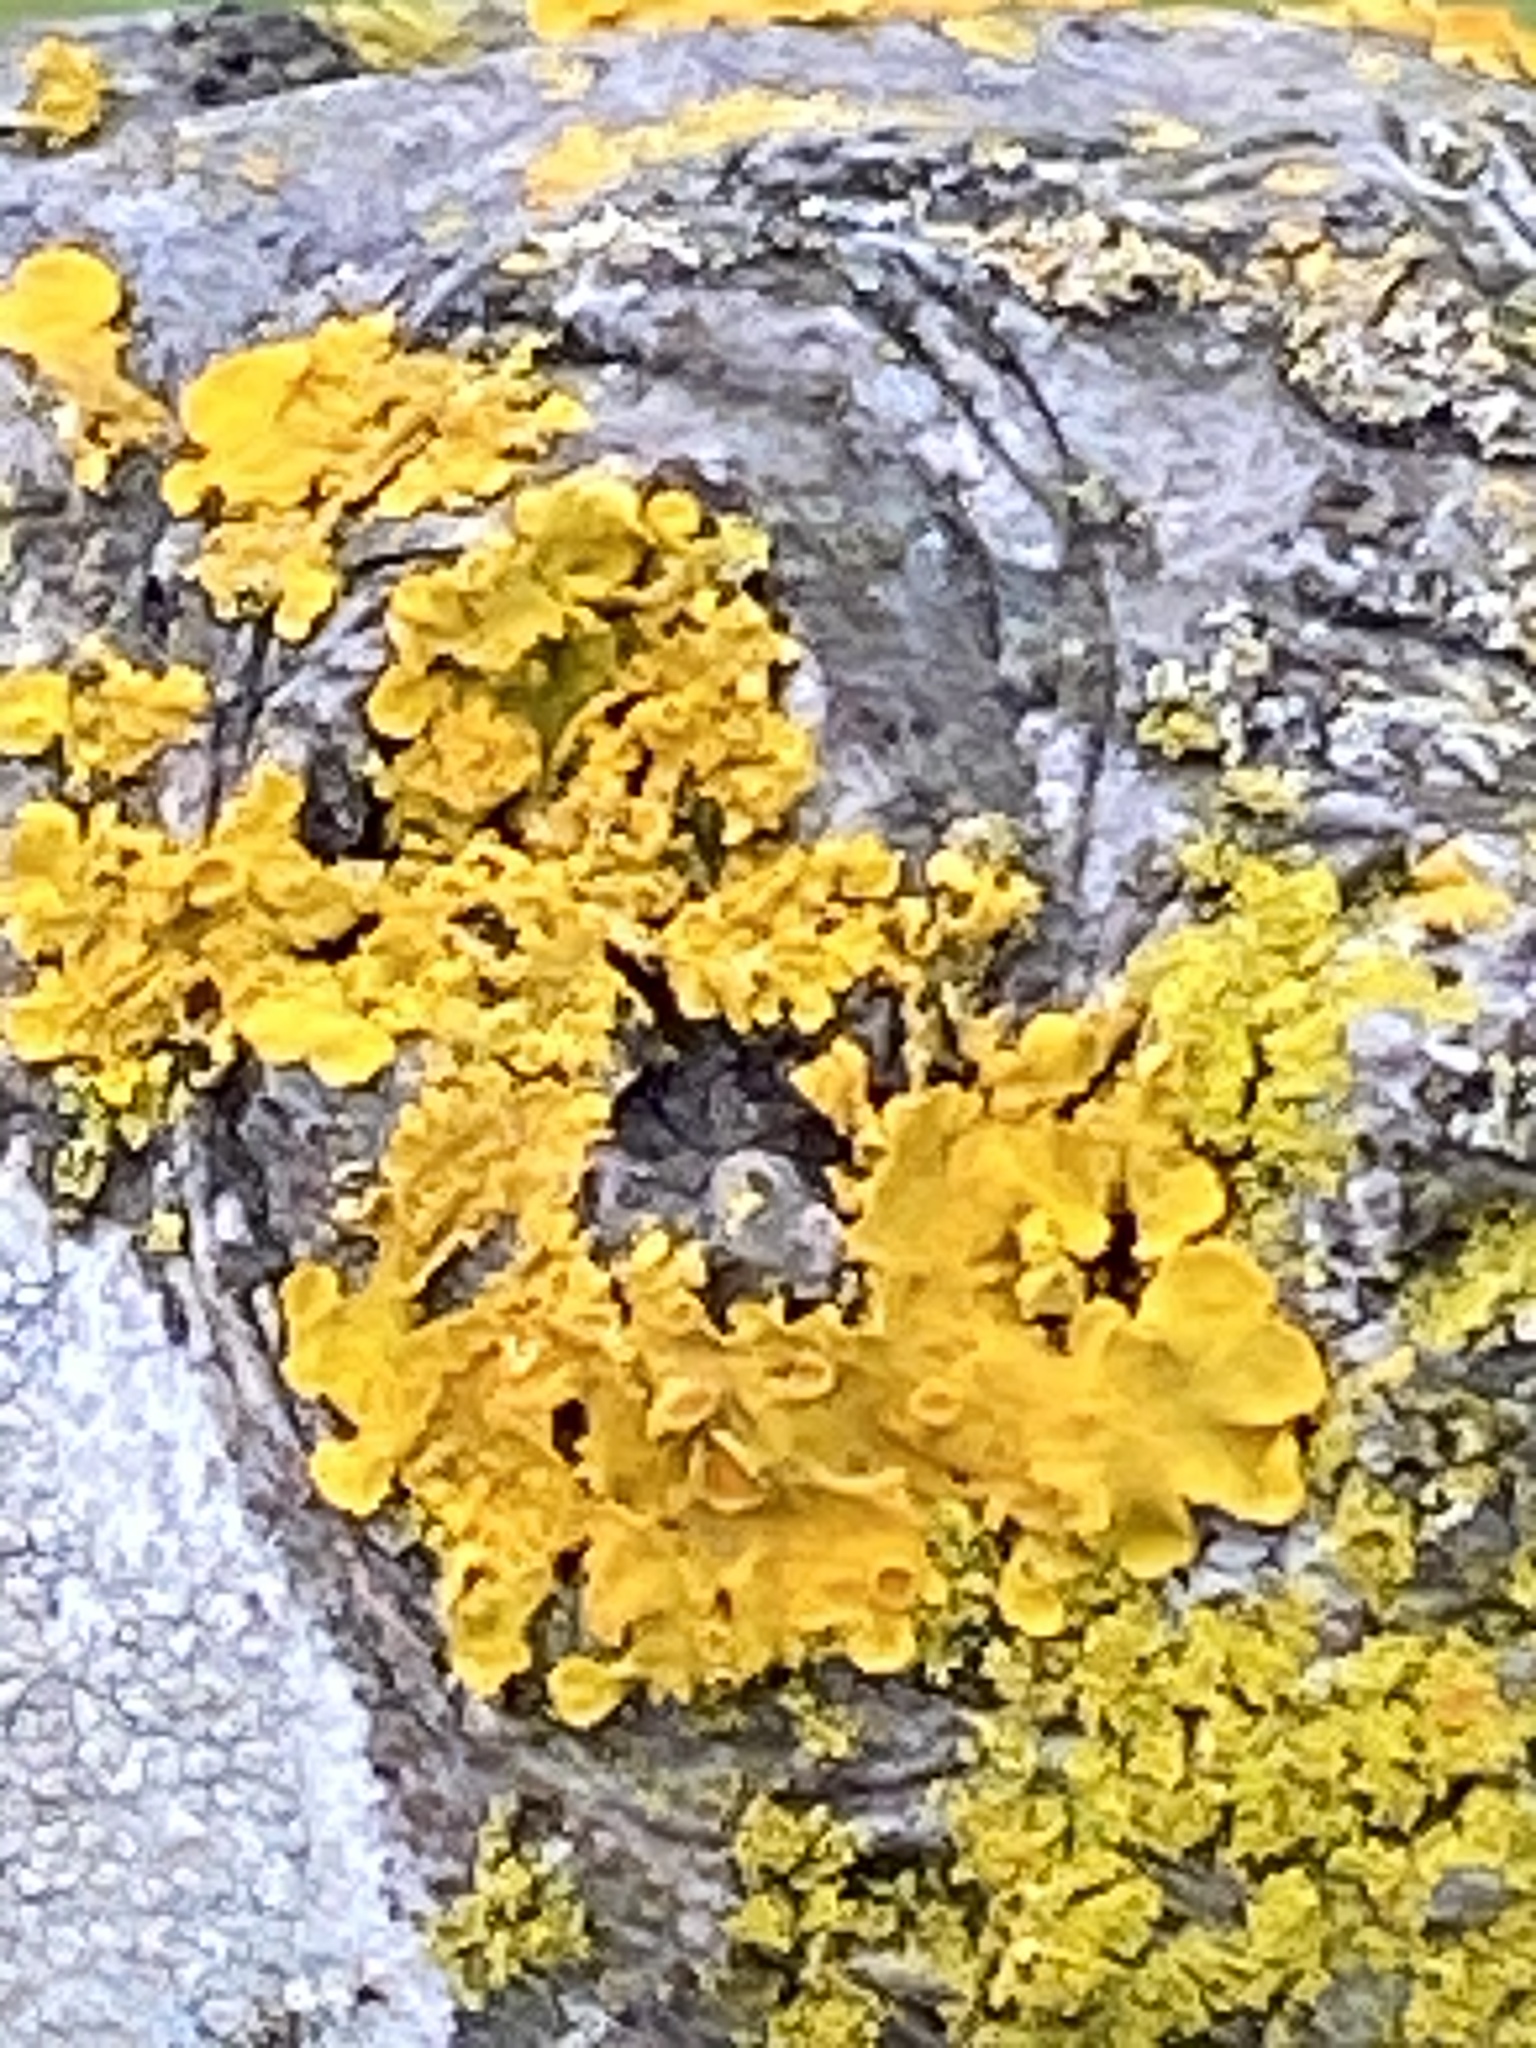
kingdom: Fungi
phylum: Ascomycota
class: Lecanoromycetes
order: Teloschistales
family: Teloschistaceae
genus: Xanthoria
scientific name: Xanthoria parietina
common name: Common orange lichen
